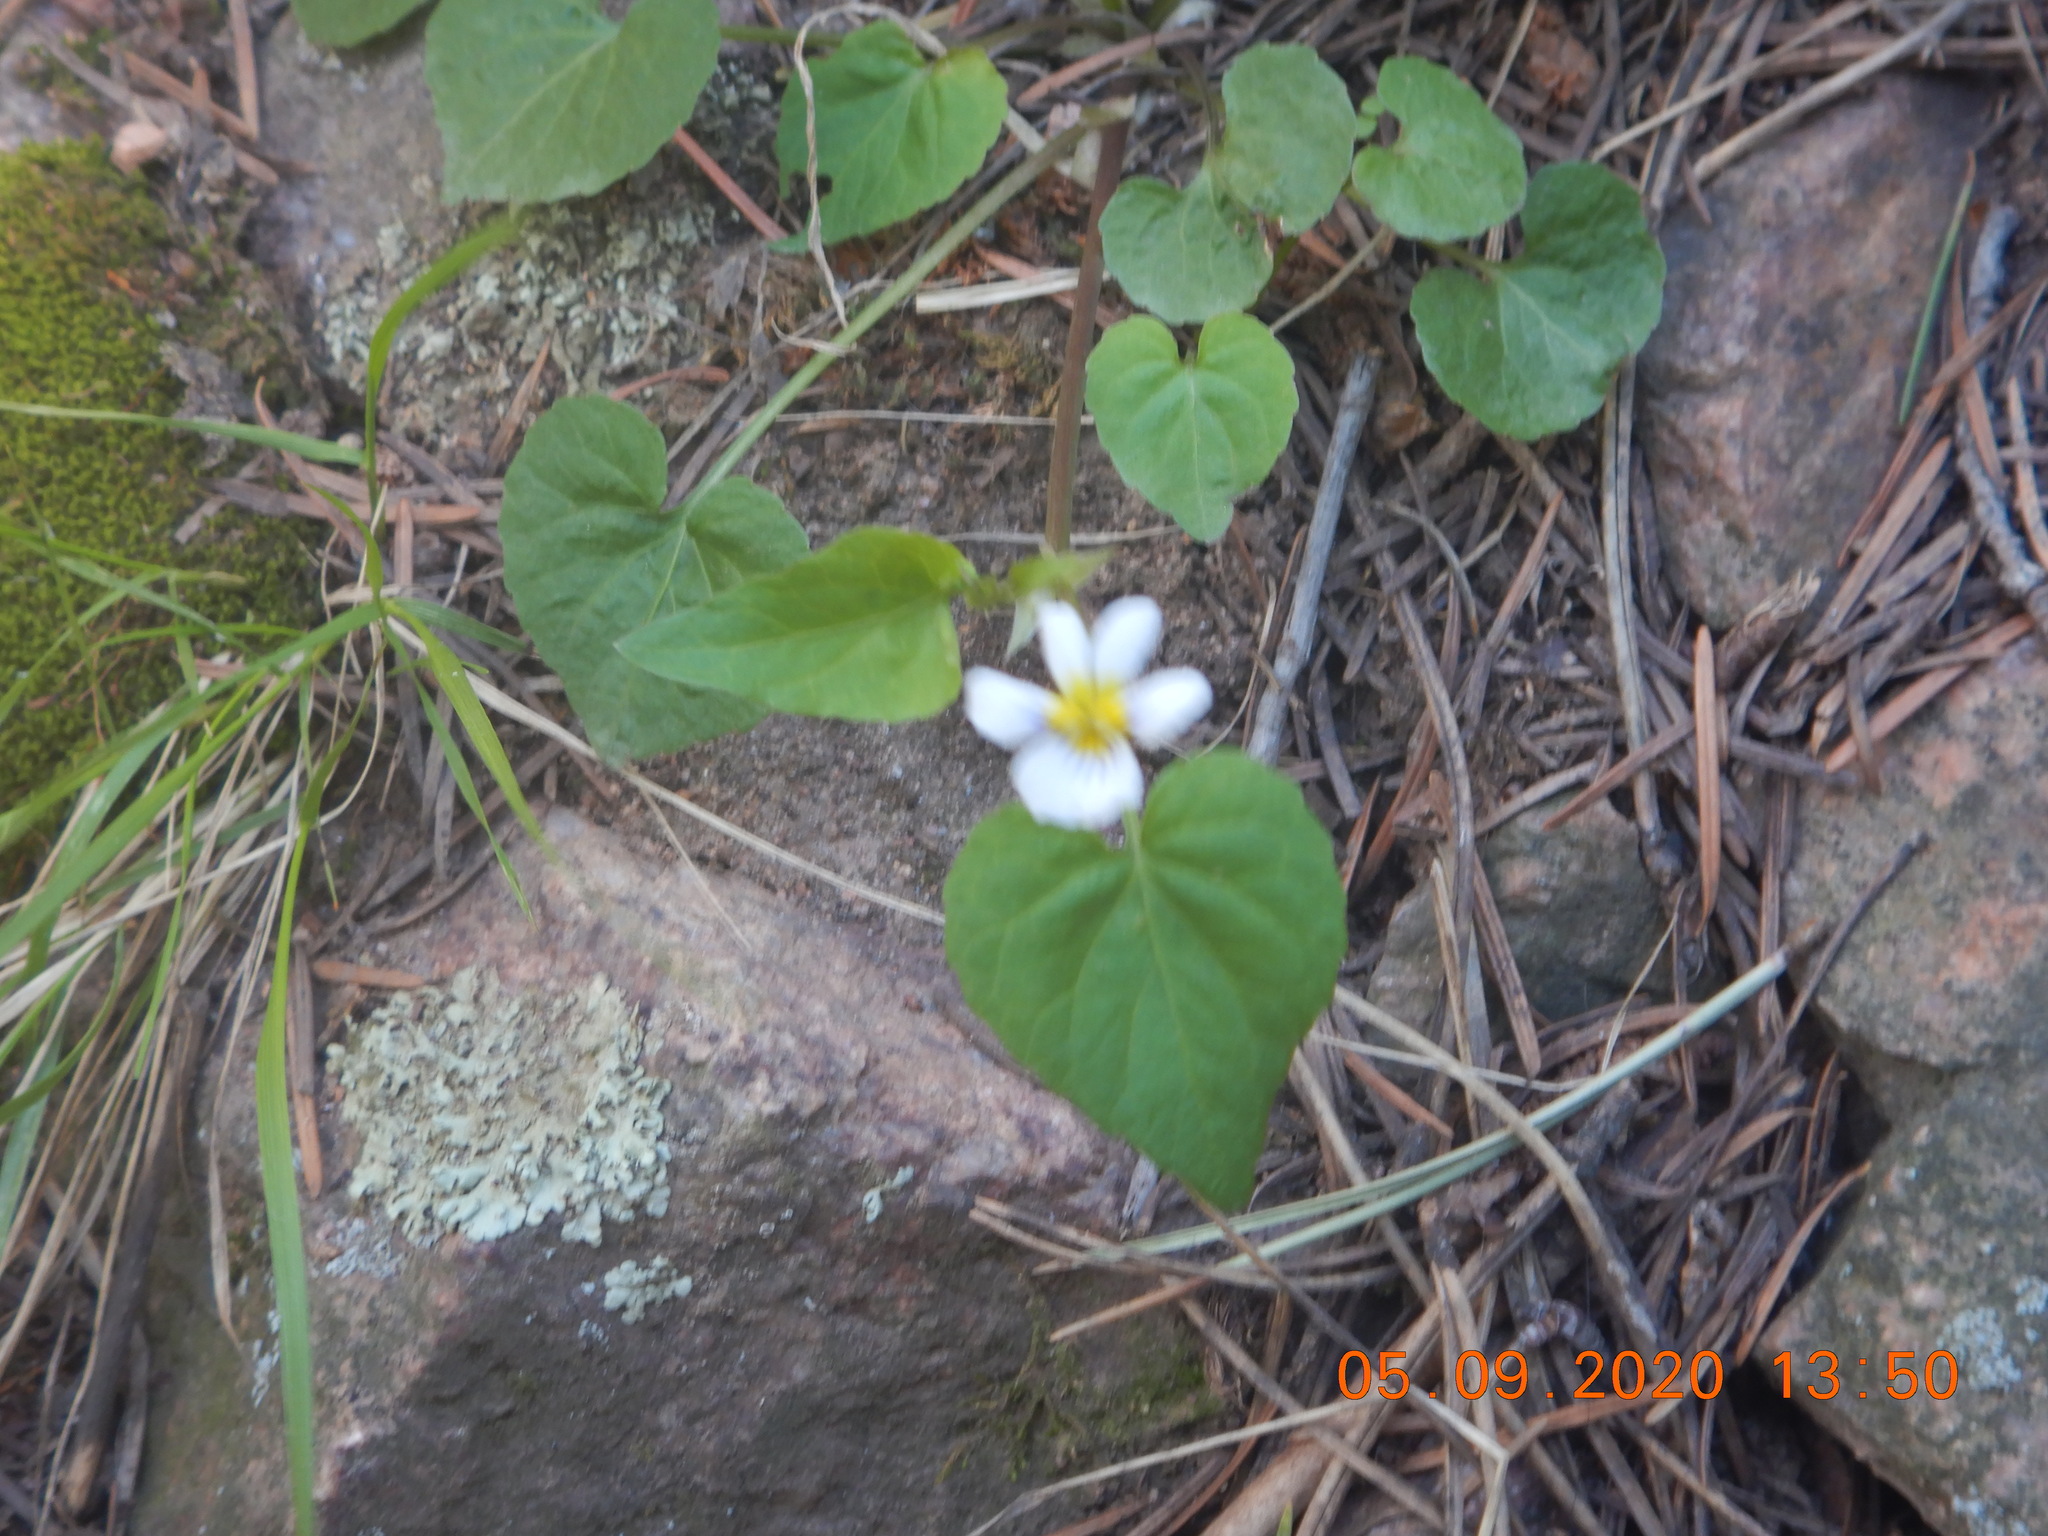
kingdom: Plantae
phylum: Tracheophyta
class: Magnoliopsida
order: Malpighiales
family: Violaceae
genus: Viola
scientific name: Viola canadensis
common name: Canada violet
